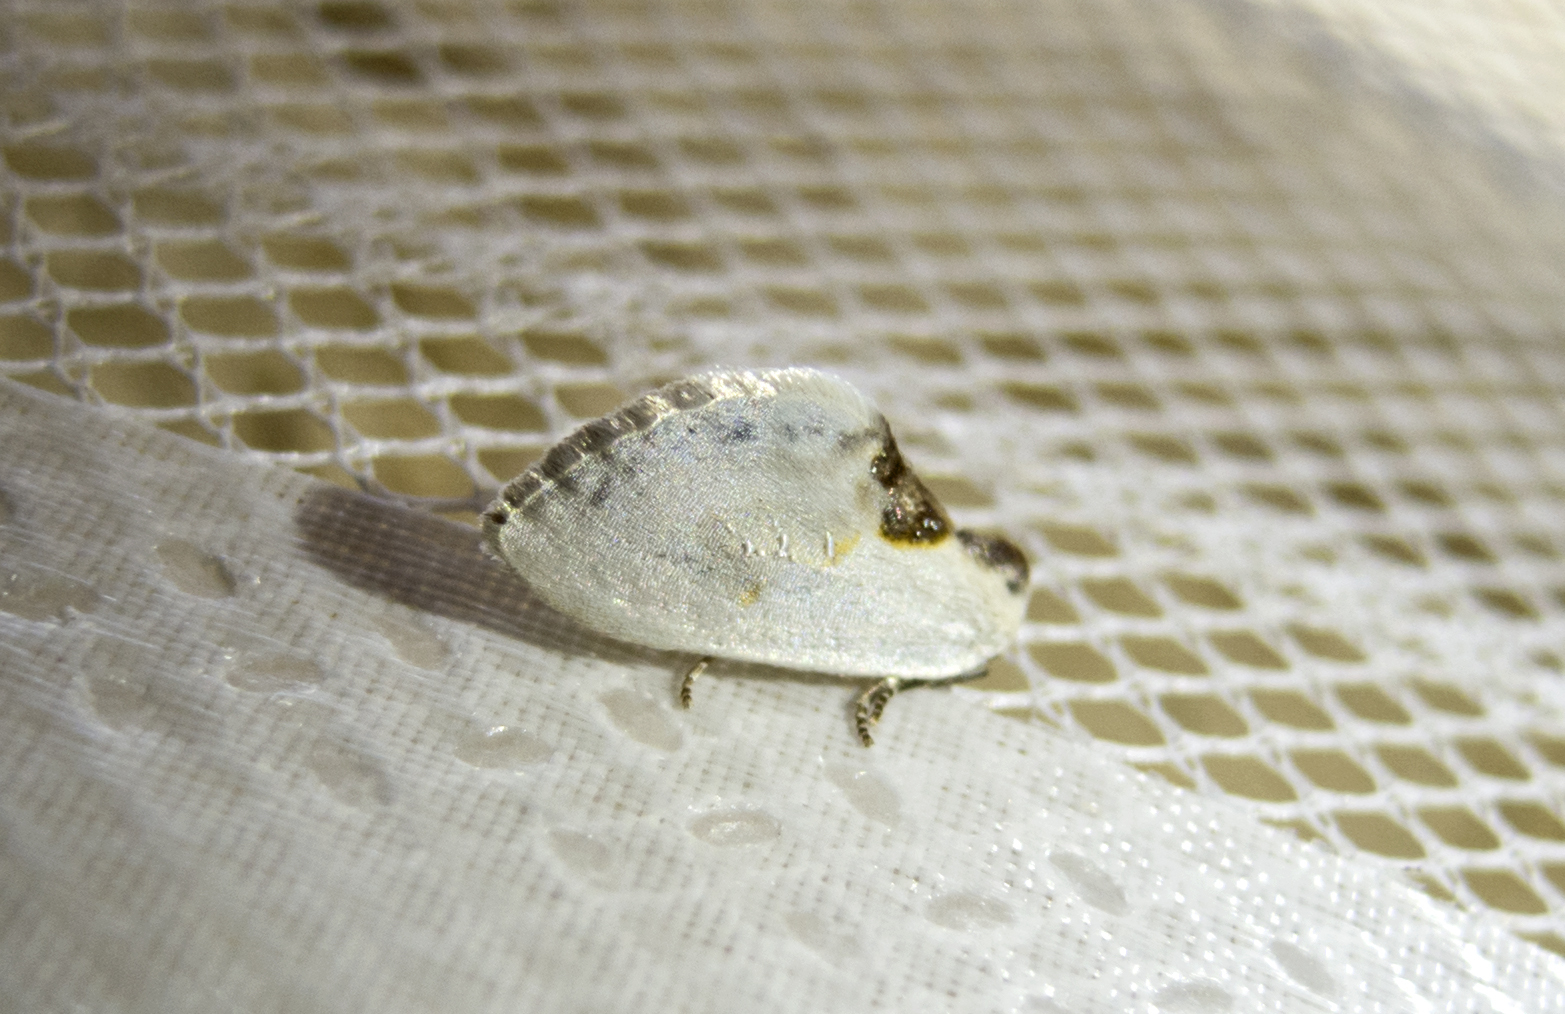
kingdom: Animalia
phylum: Arthropoda
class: Insecta
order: Lepidoptera
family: Drepanidae
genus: Cilix
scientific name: Cilix glaucata
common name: Chinese character
